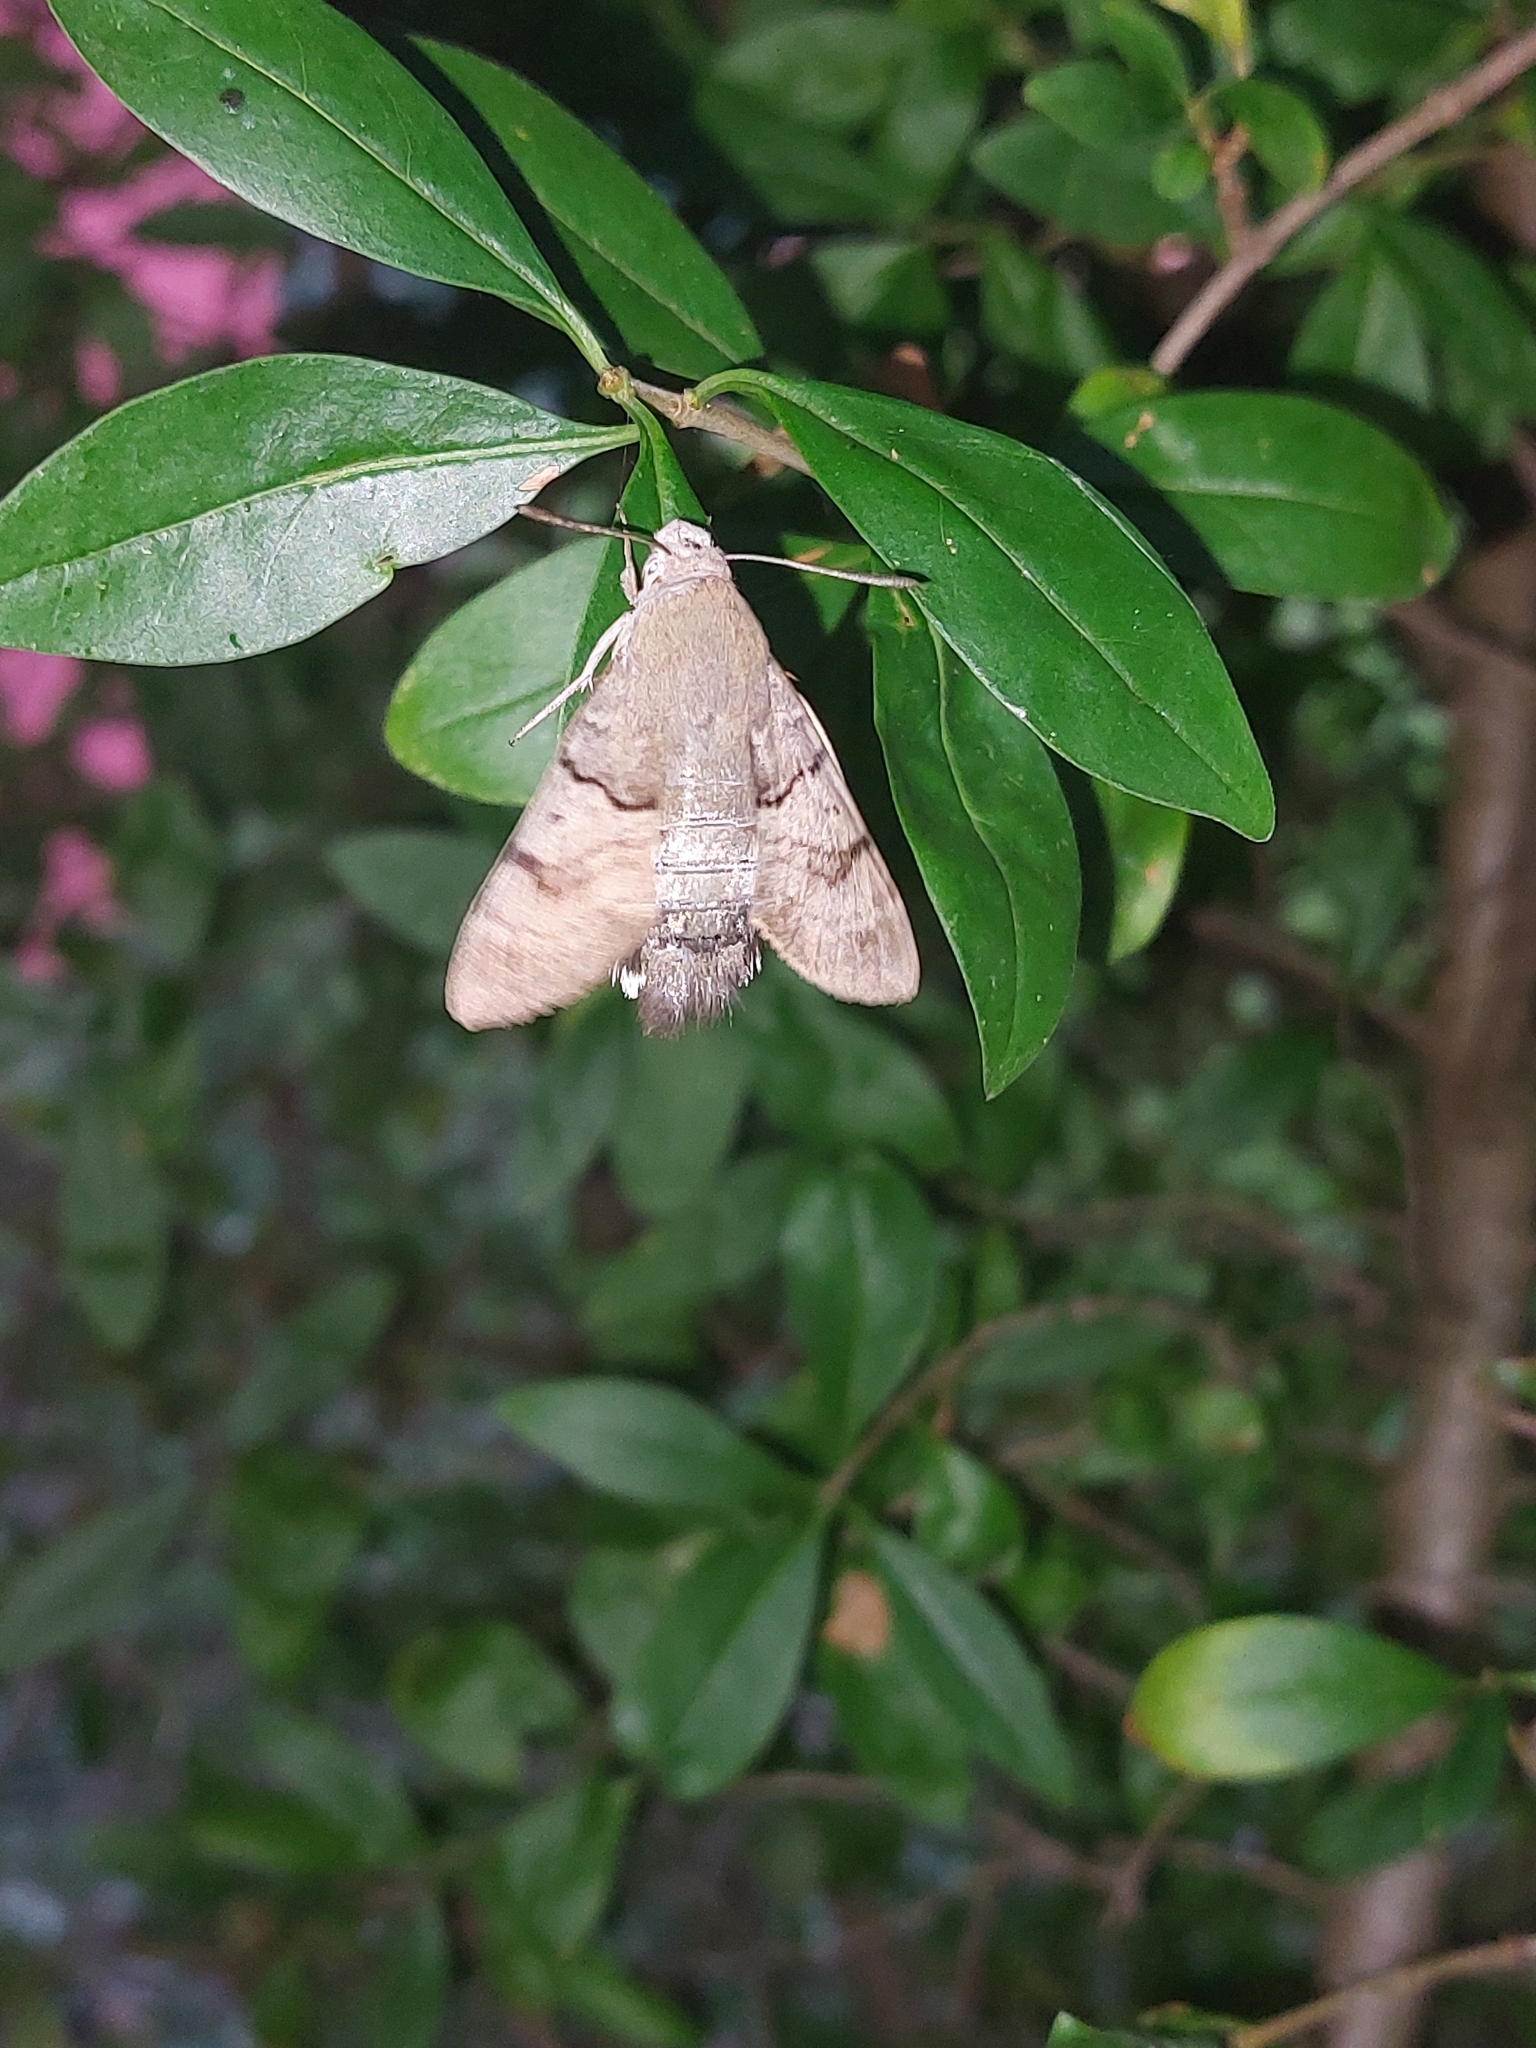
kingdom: Animalia
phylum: Arthropoda
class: Insecta
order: Lepidoptera
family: Sphingidae
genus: Macroglossum
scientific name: Macroglossum stellatarum
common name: Humming-bird hawk-moth
